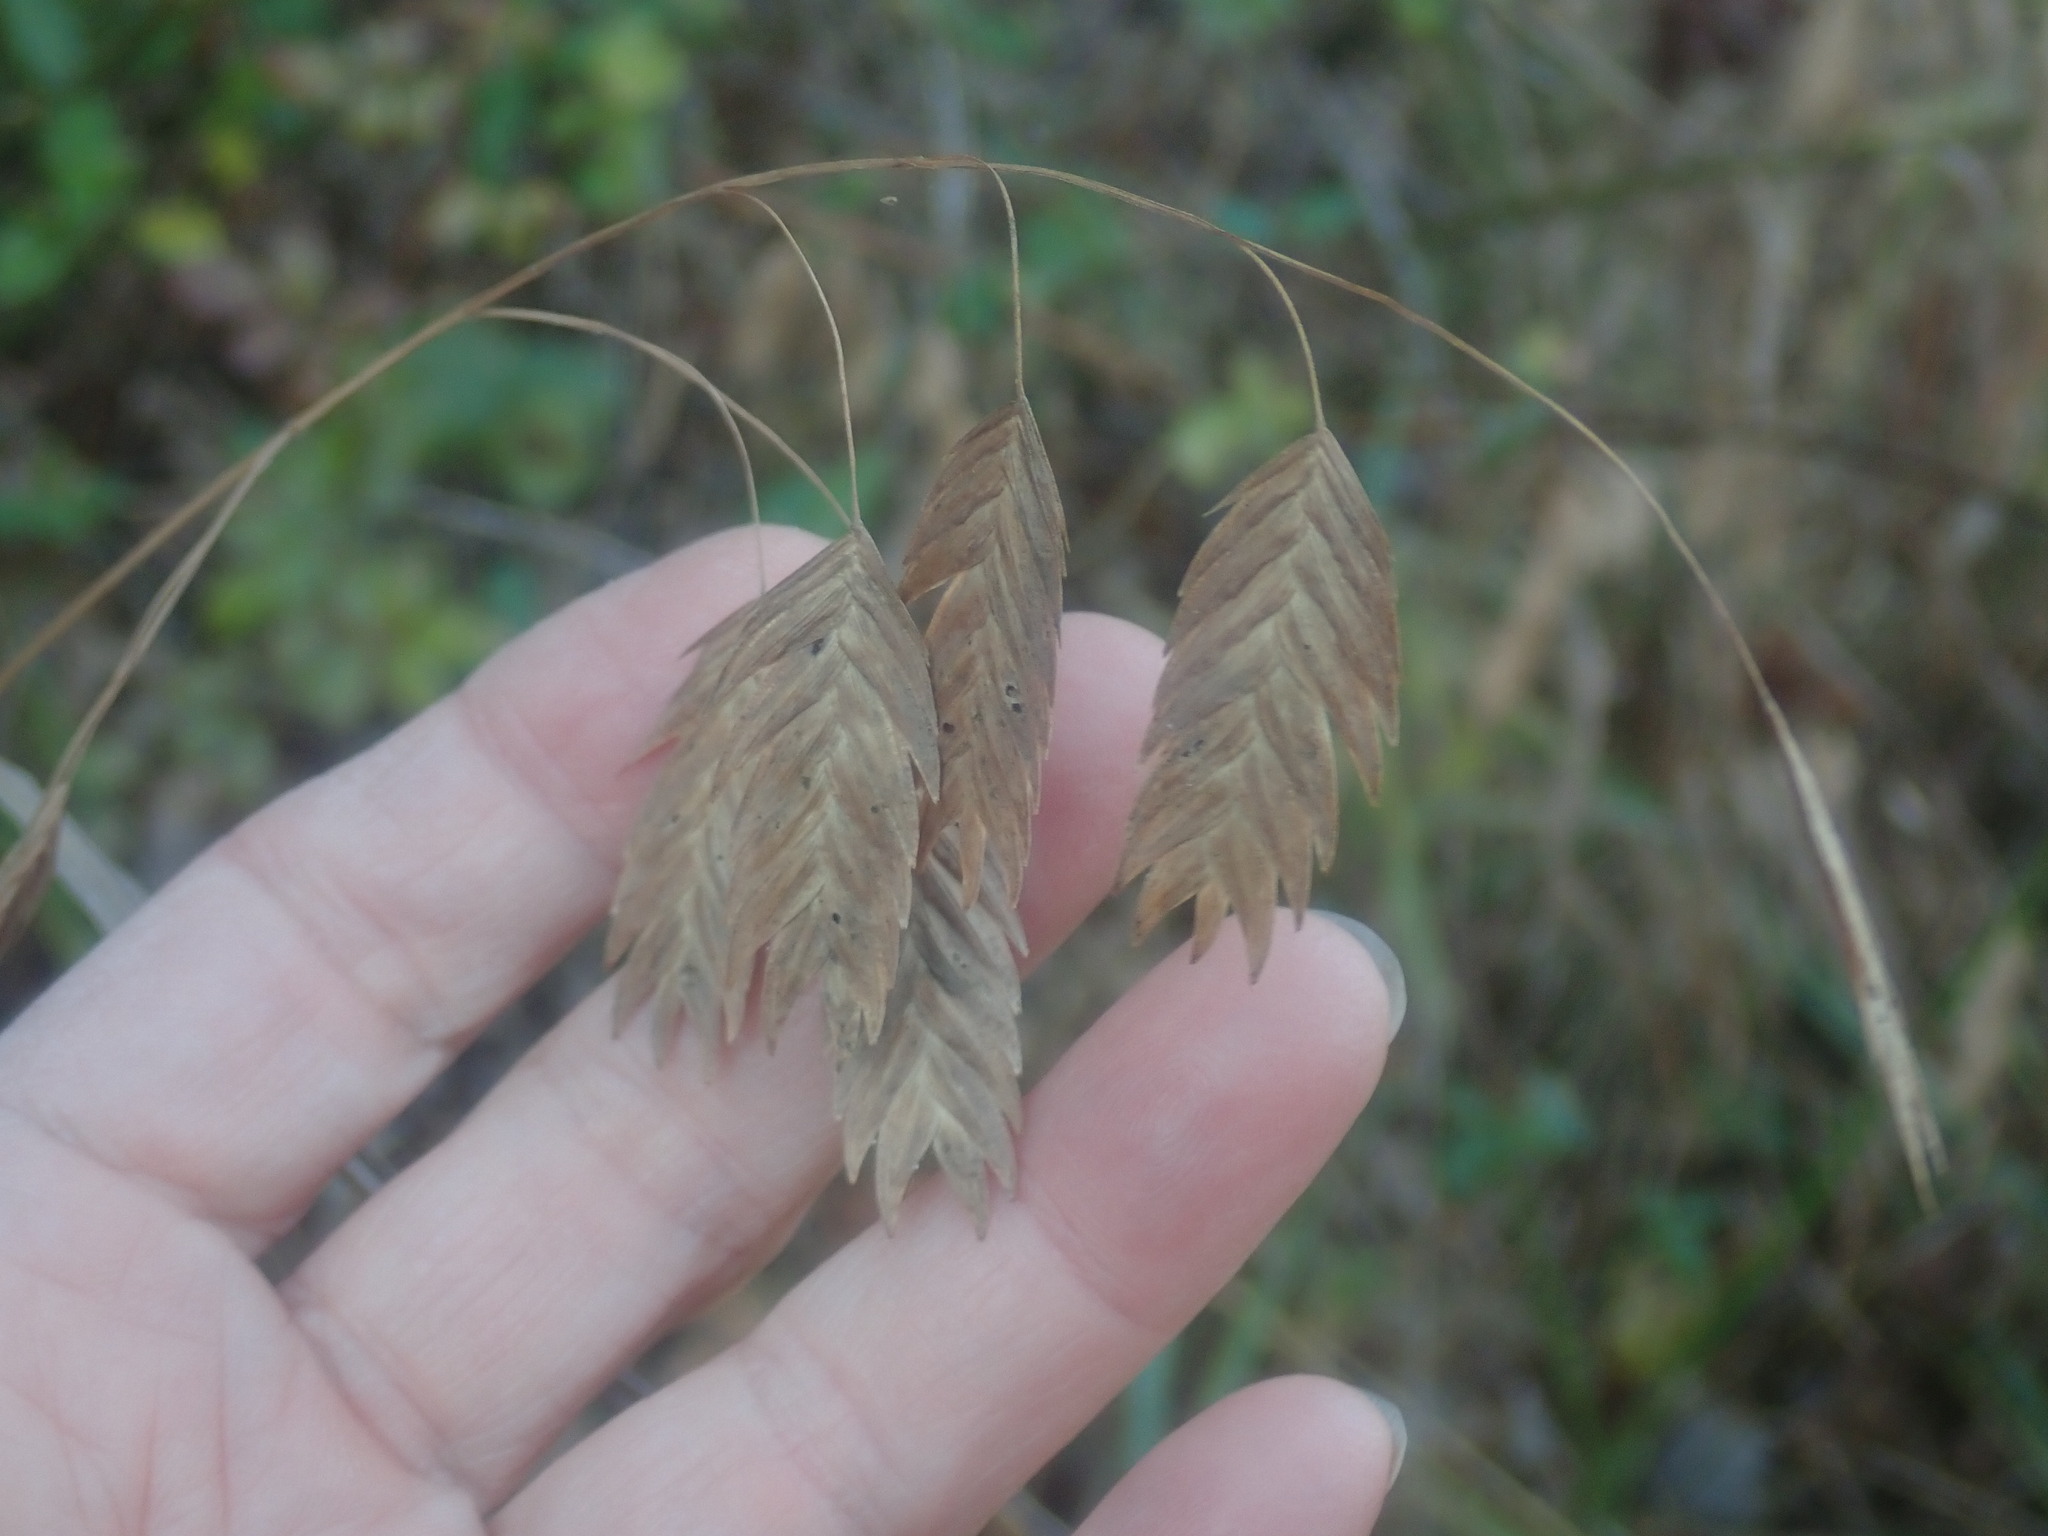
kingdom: Plantae
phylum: Tracheophyta
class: Liliopsida
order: Poales
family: Poaceae
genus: Chasmanthium
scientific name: Chasmanthium latifolium
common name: Broad-leaved chasmanthium
